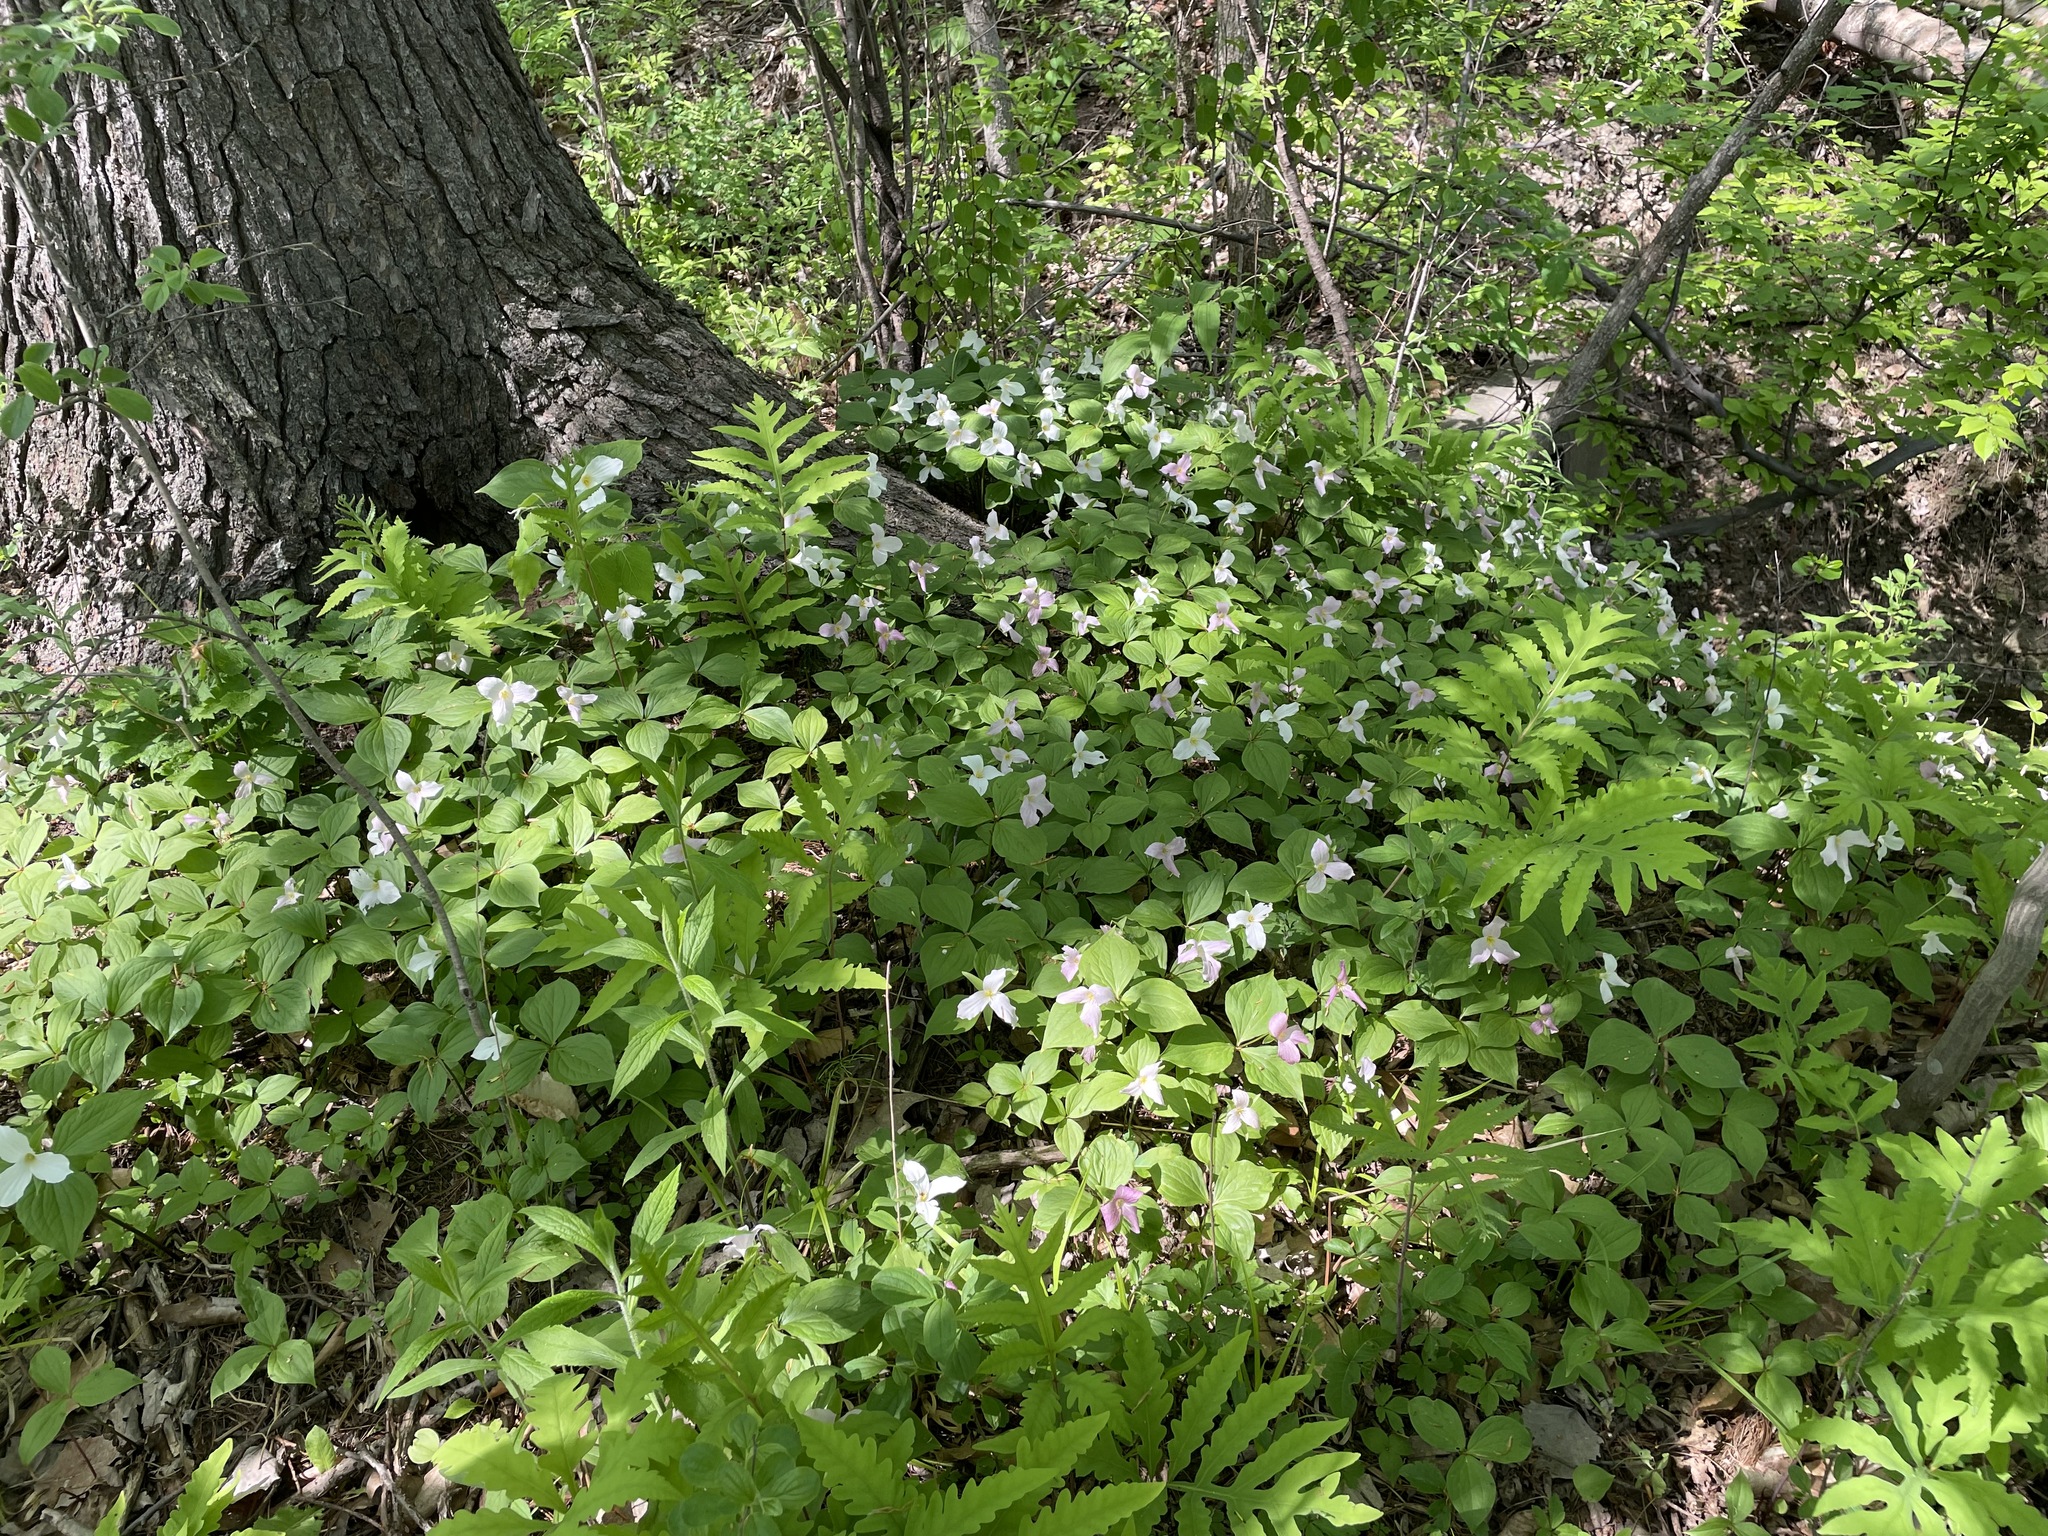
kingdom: Plantae
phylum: Tracheophyta
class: Liliopsida
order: Liliales
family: Melanthiaceae
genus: Trillium
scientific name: Trillium grandiflorum
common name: Great white trillium
